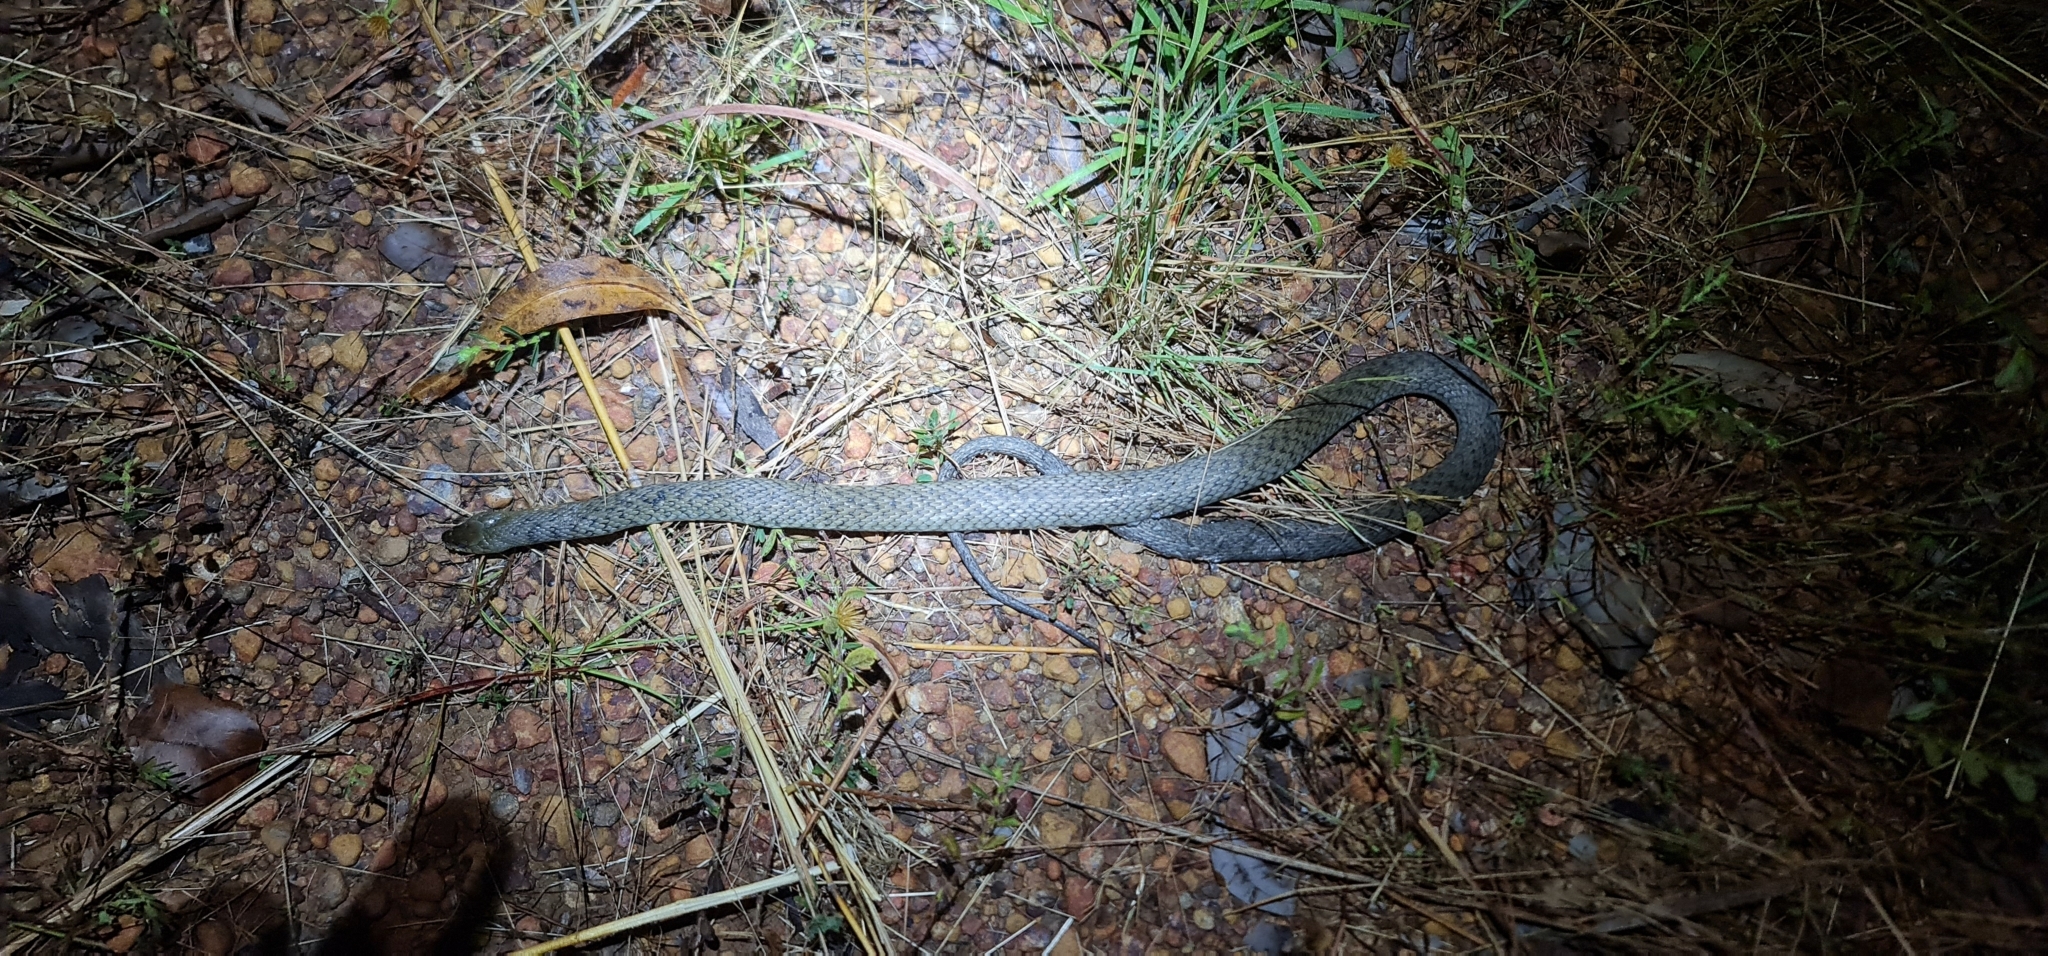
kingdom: Animalia
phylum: Chordata
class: Squamata
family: Colubridae
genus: Tropidonophis
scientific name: Tropidonophis mairii
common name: Common keelback
